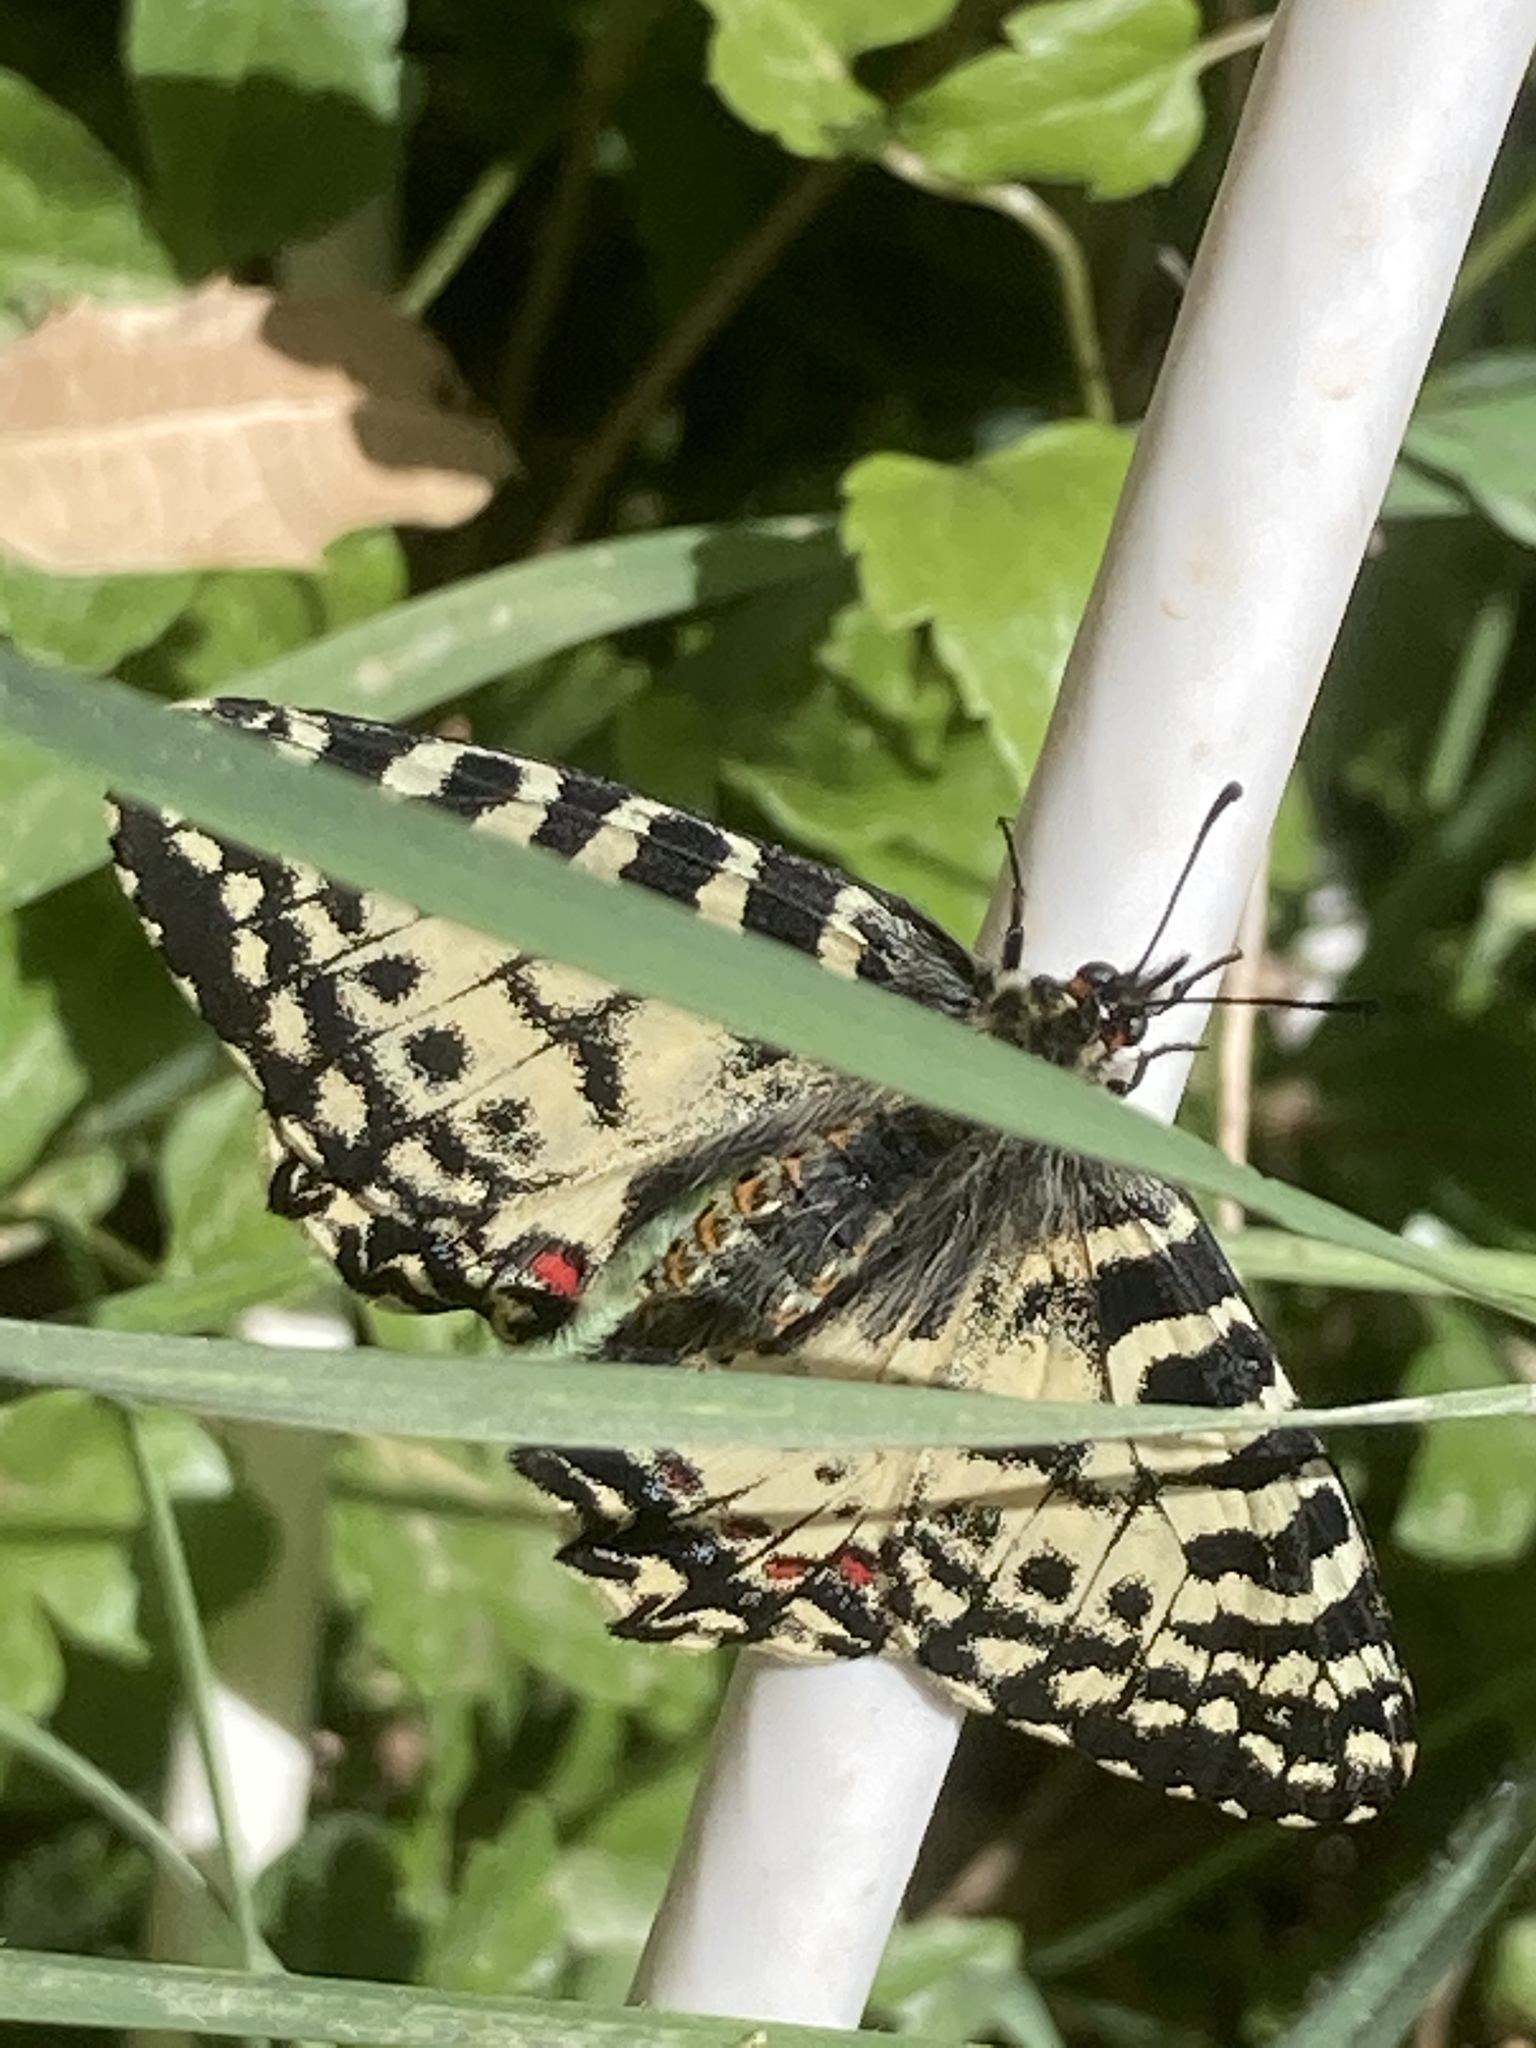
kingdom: Animalia
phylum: Arthropoda
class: Insecta
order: Lepidoptera
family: Papilionidae
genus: Zerynthia
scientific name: Zerynthia cretica
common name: Cretan festoon
